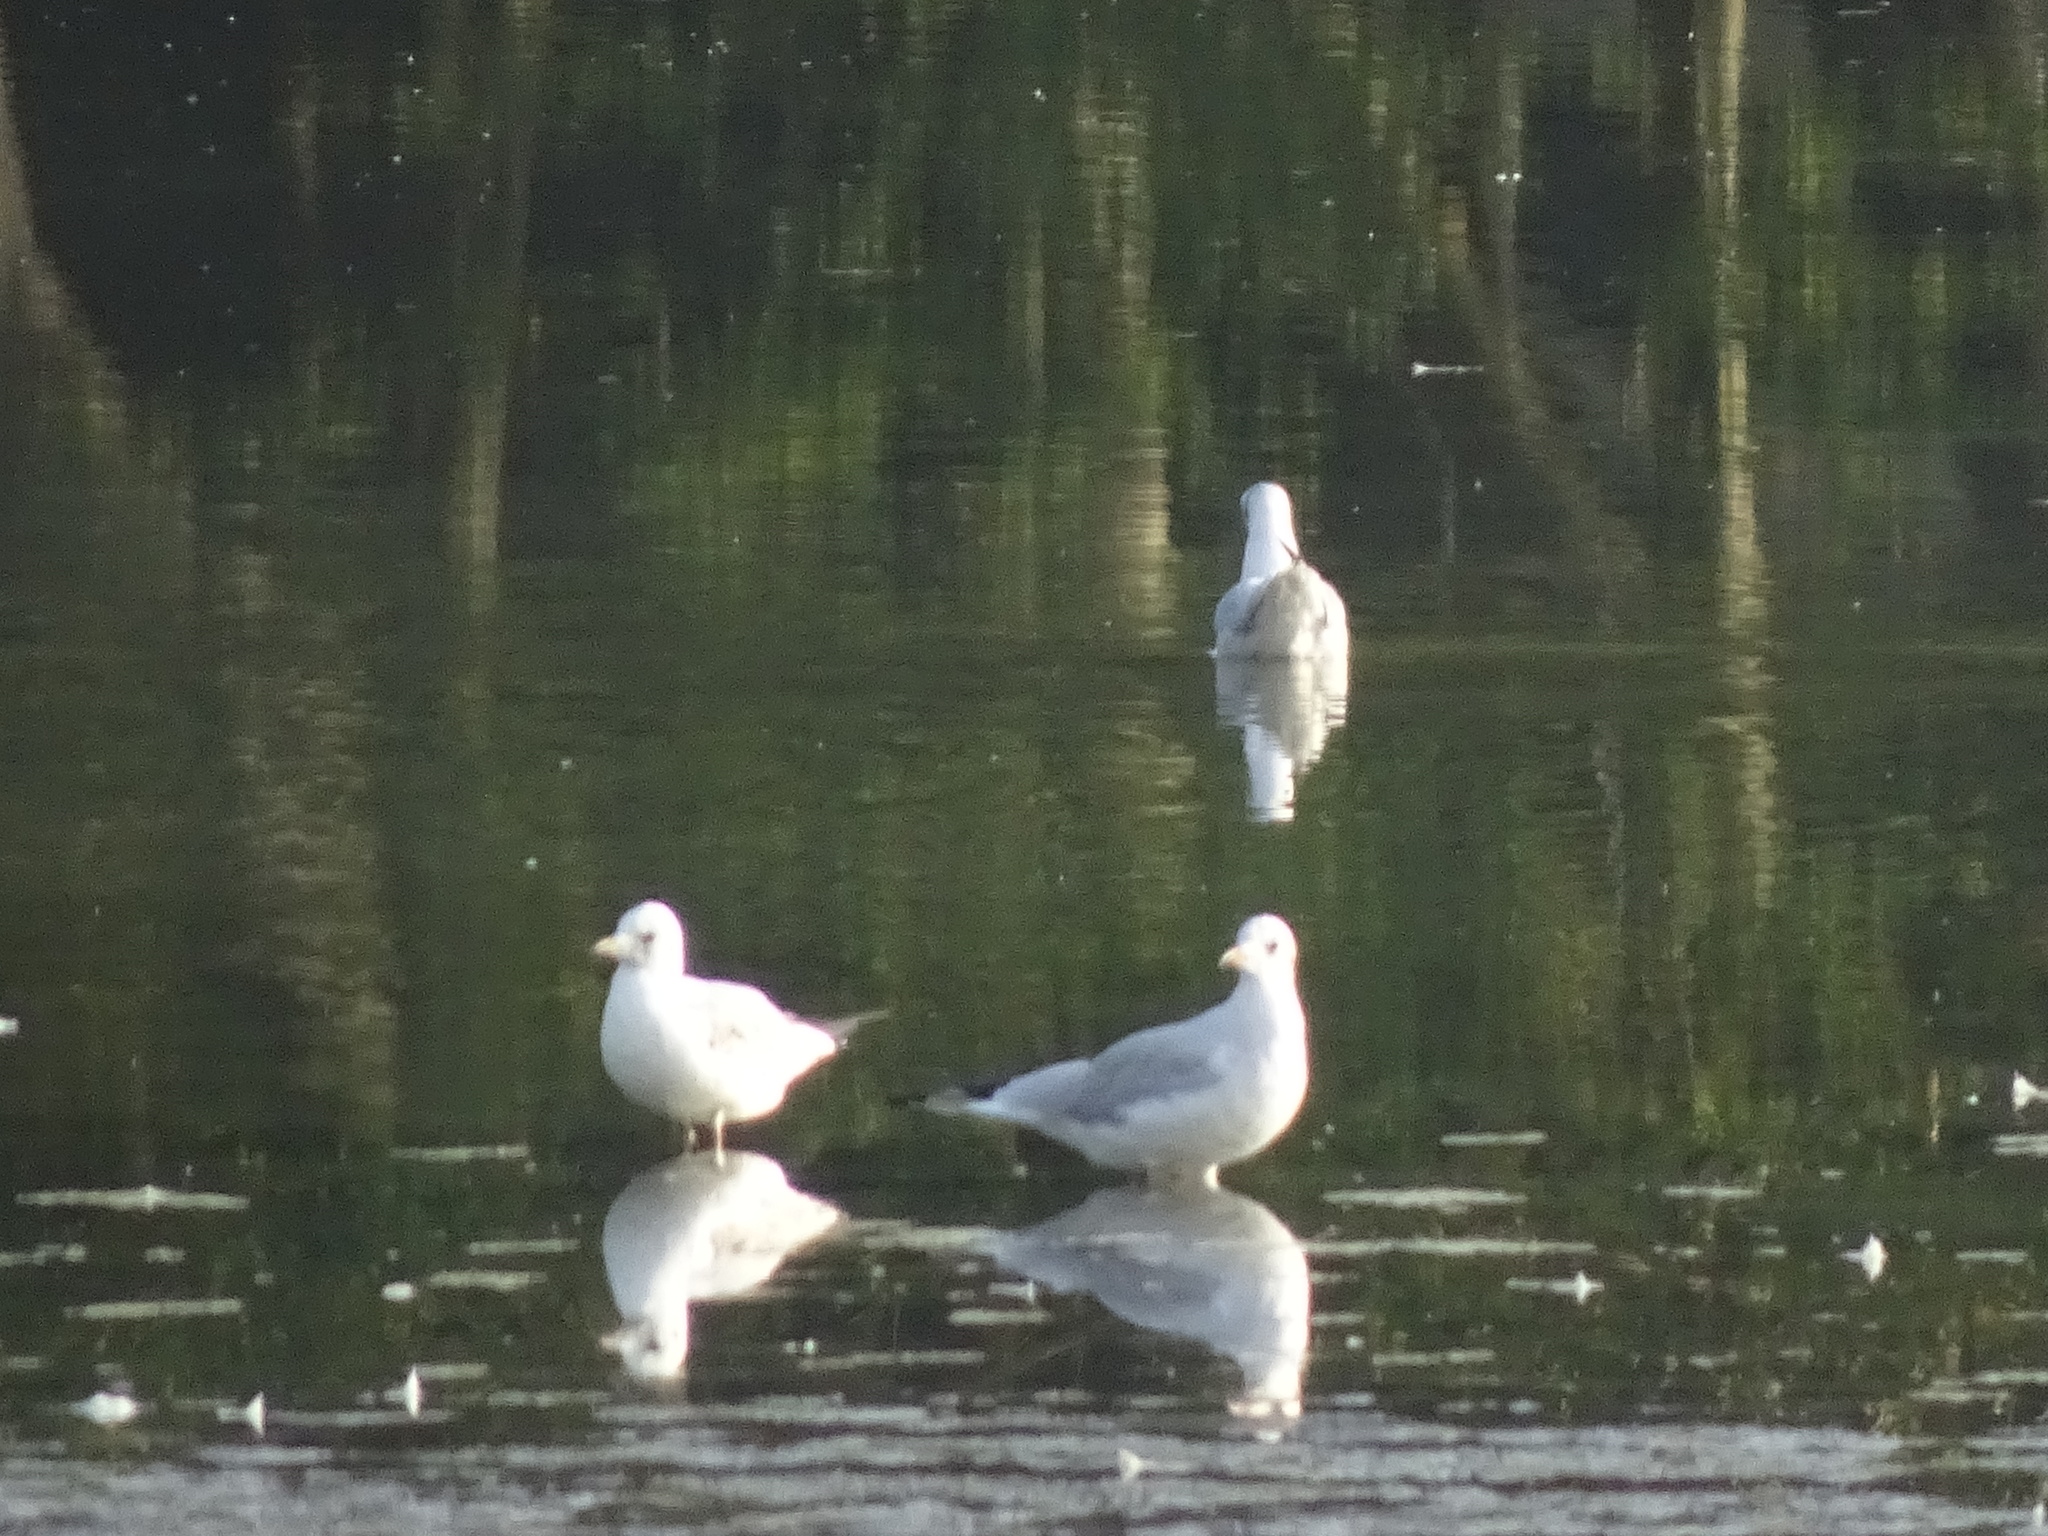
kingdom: Animalia
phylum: Chordata
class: Aves
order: Charadriiformes
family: Laridae
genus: Chroicocephalus
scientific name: Chroicocephalus ridibundus
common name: Black-headed gull
